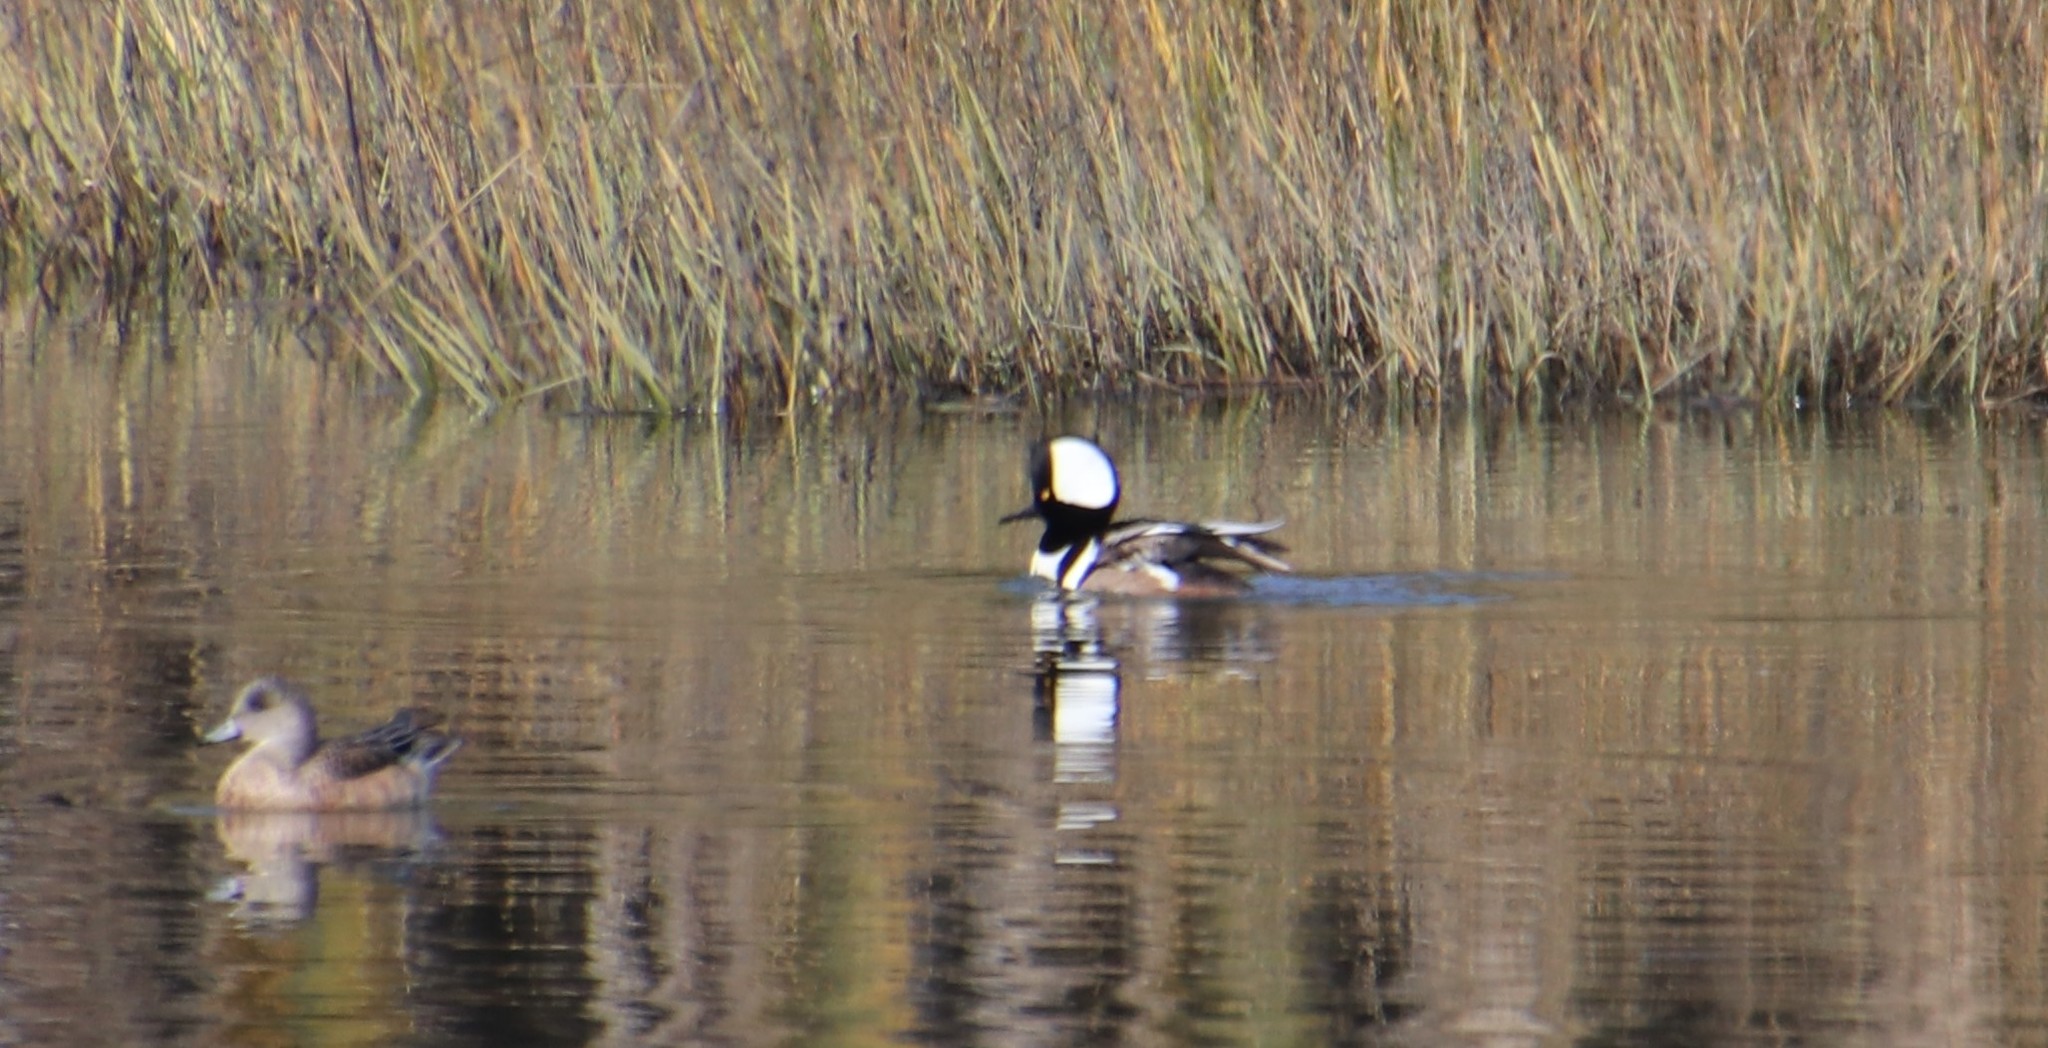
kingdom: Animalia
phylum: Chordata
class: Aves
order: Anseriformes
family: Anatidae
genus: Lophodytes
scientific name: Lophodytes cucullatus
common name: Hooded merganser
